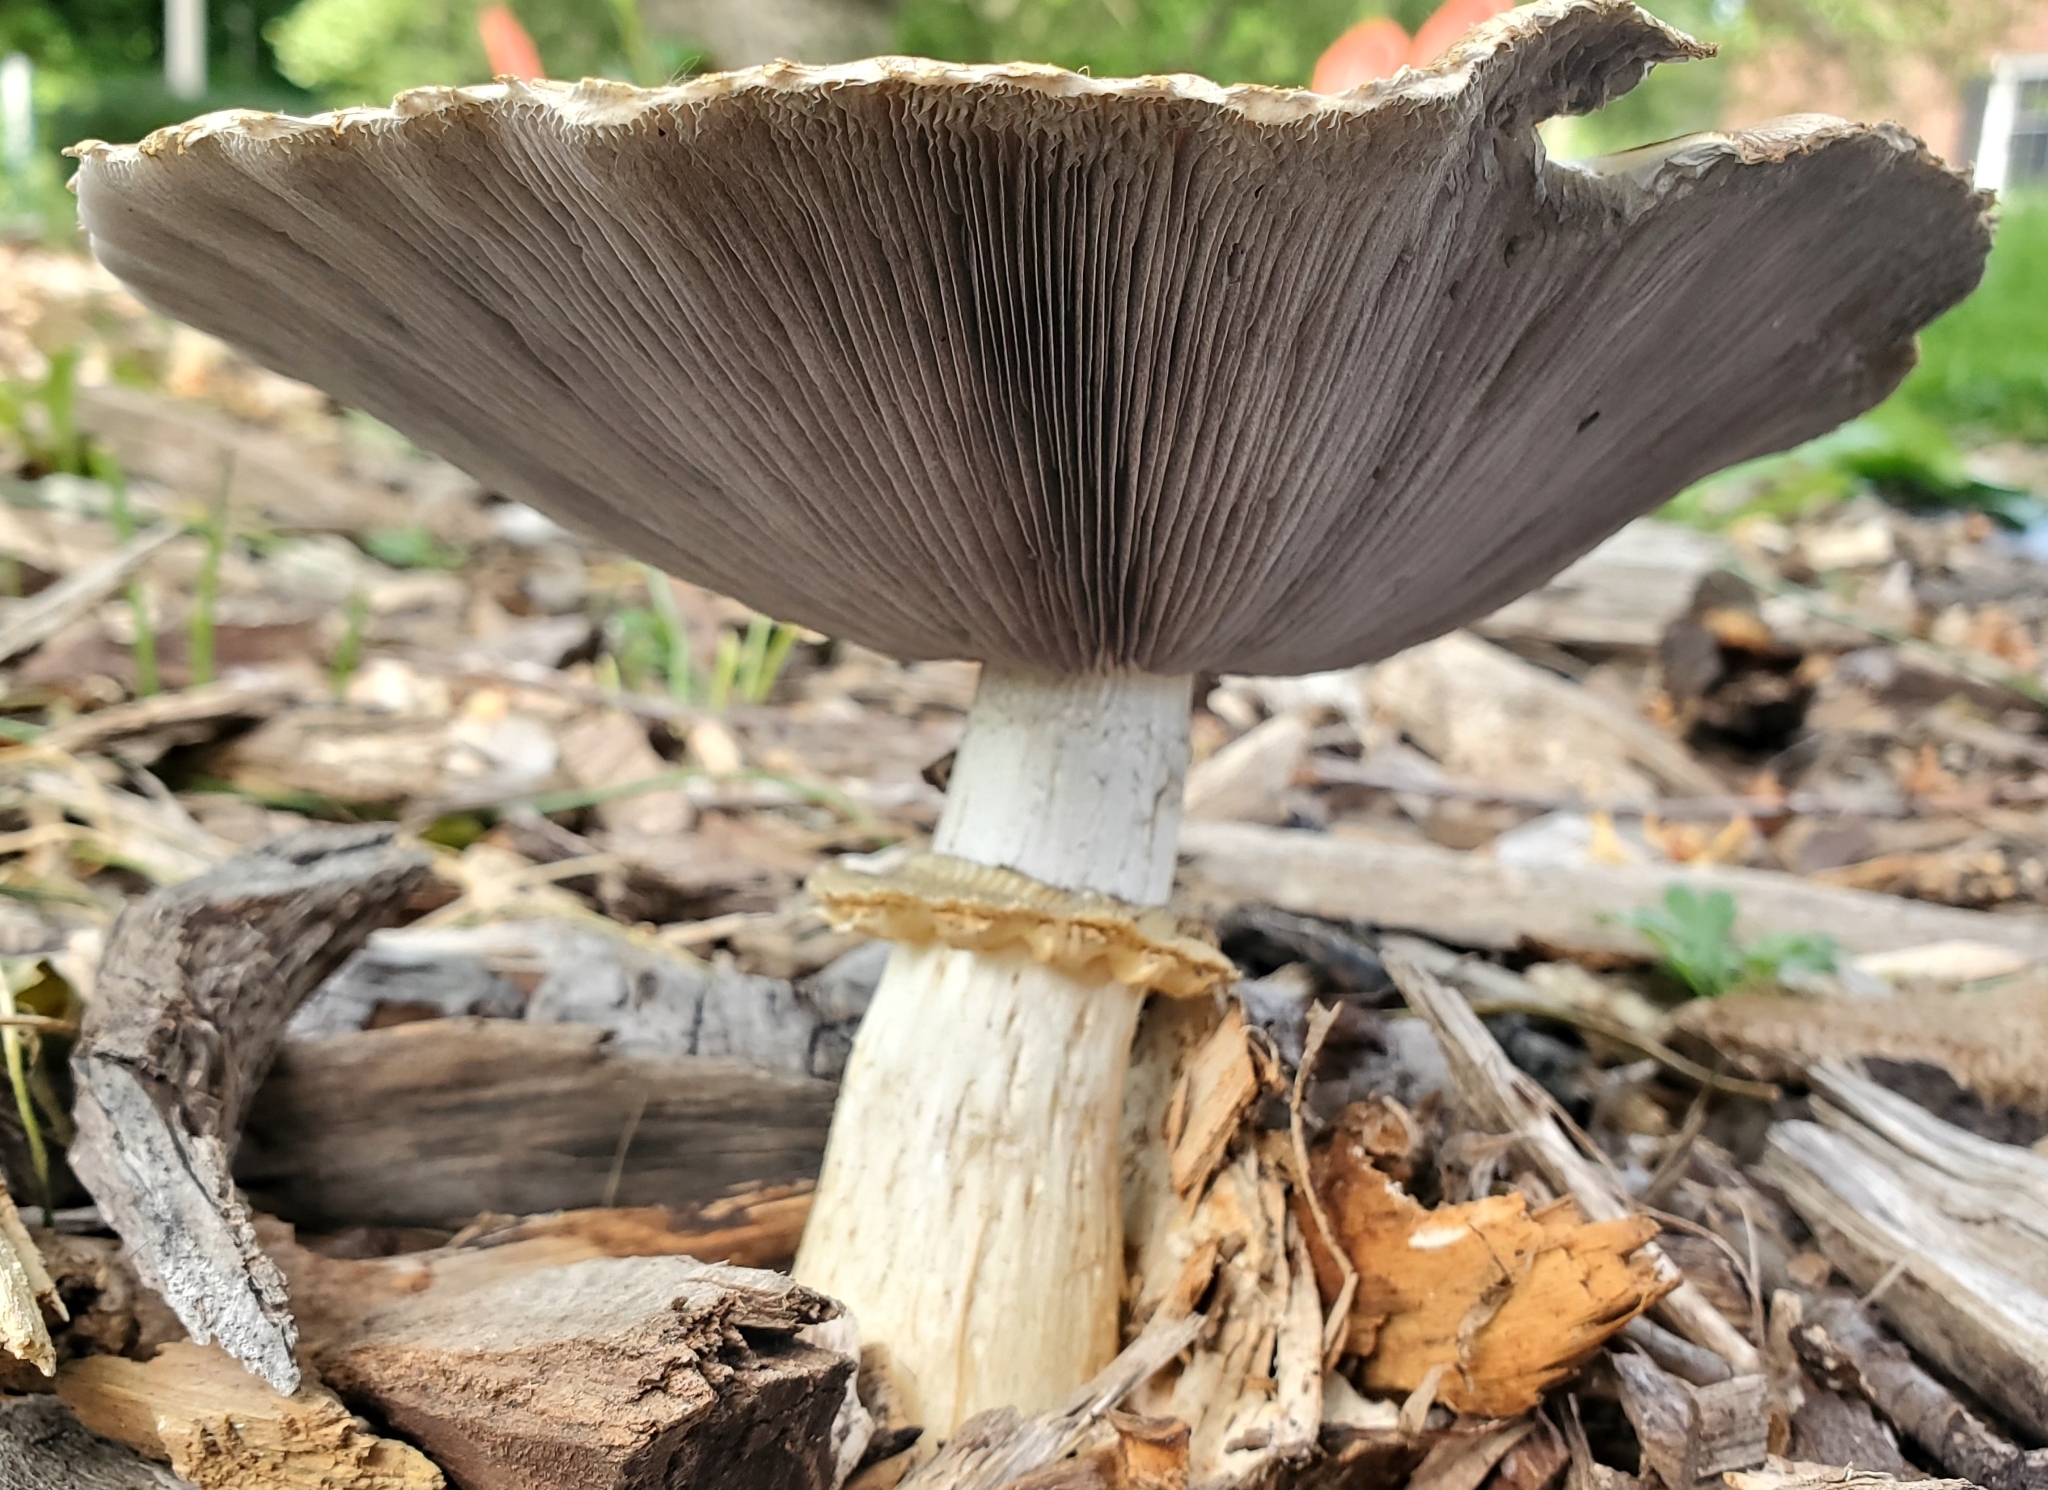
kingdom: Fungi
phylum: Basidiomycota
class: Agaricomycetes
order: Agaricales
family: Strophariaceae
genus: Stropharia
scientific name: Stropharia rugosoannulata
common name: Wine roundhead
